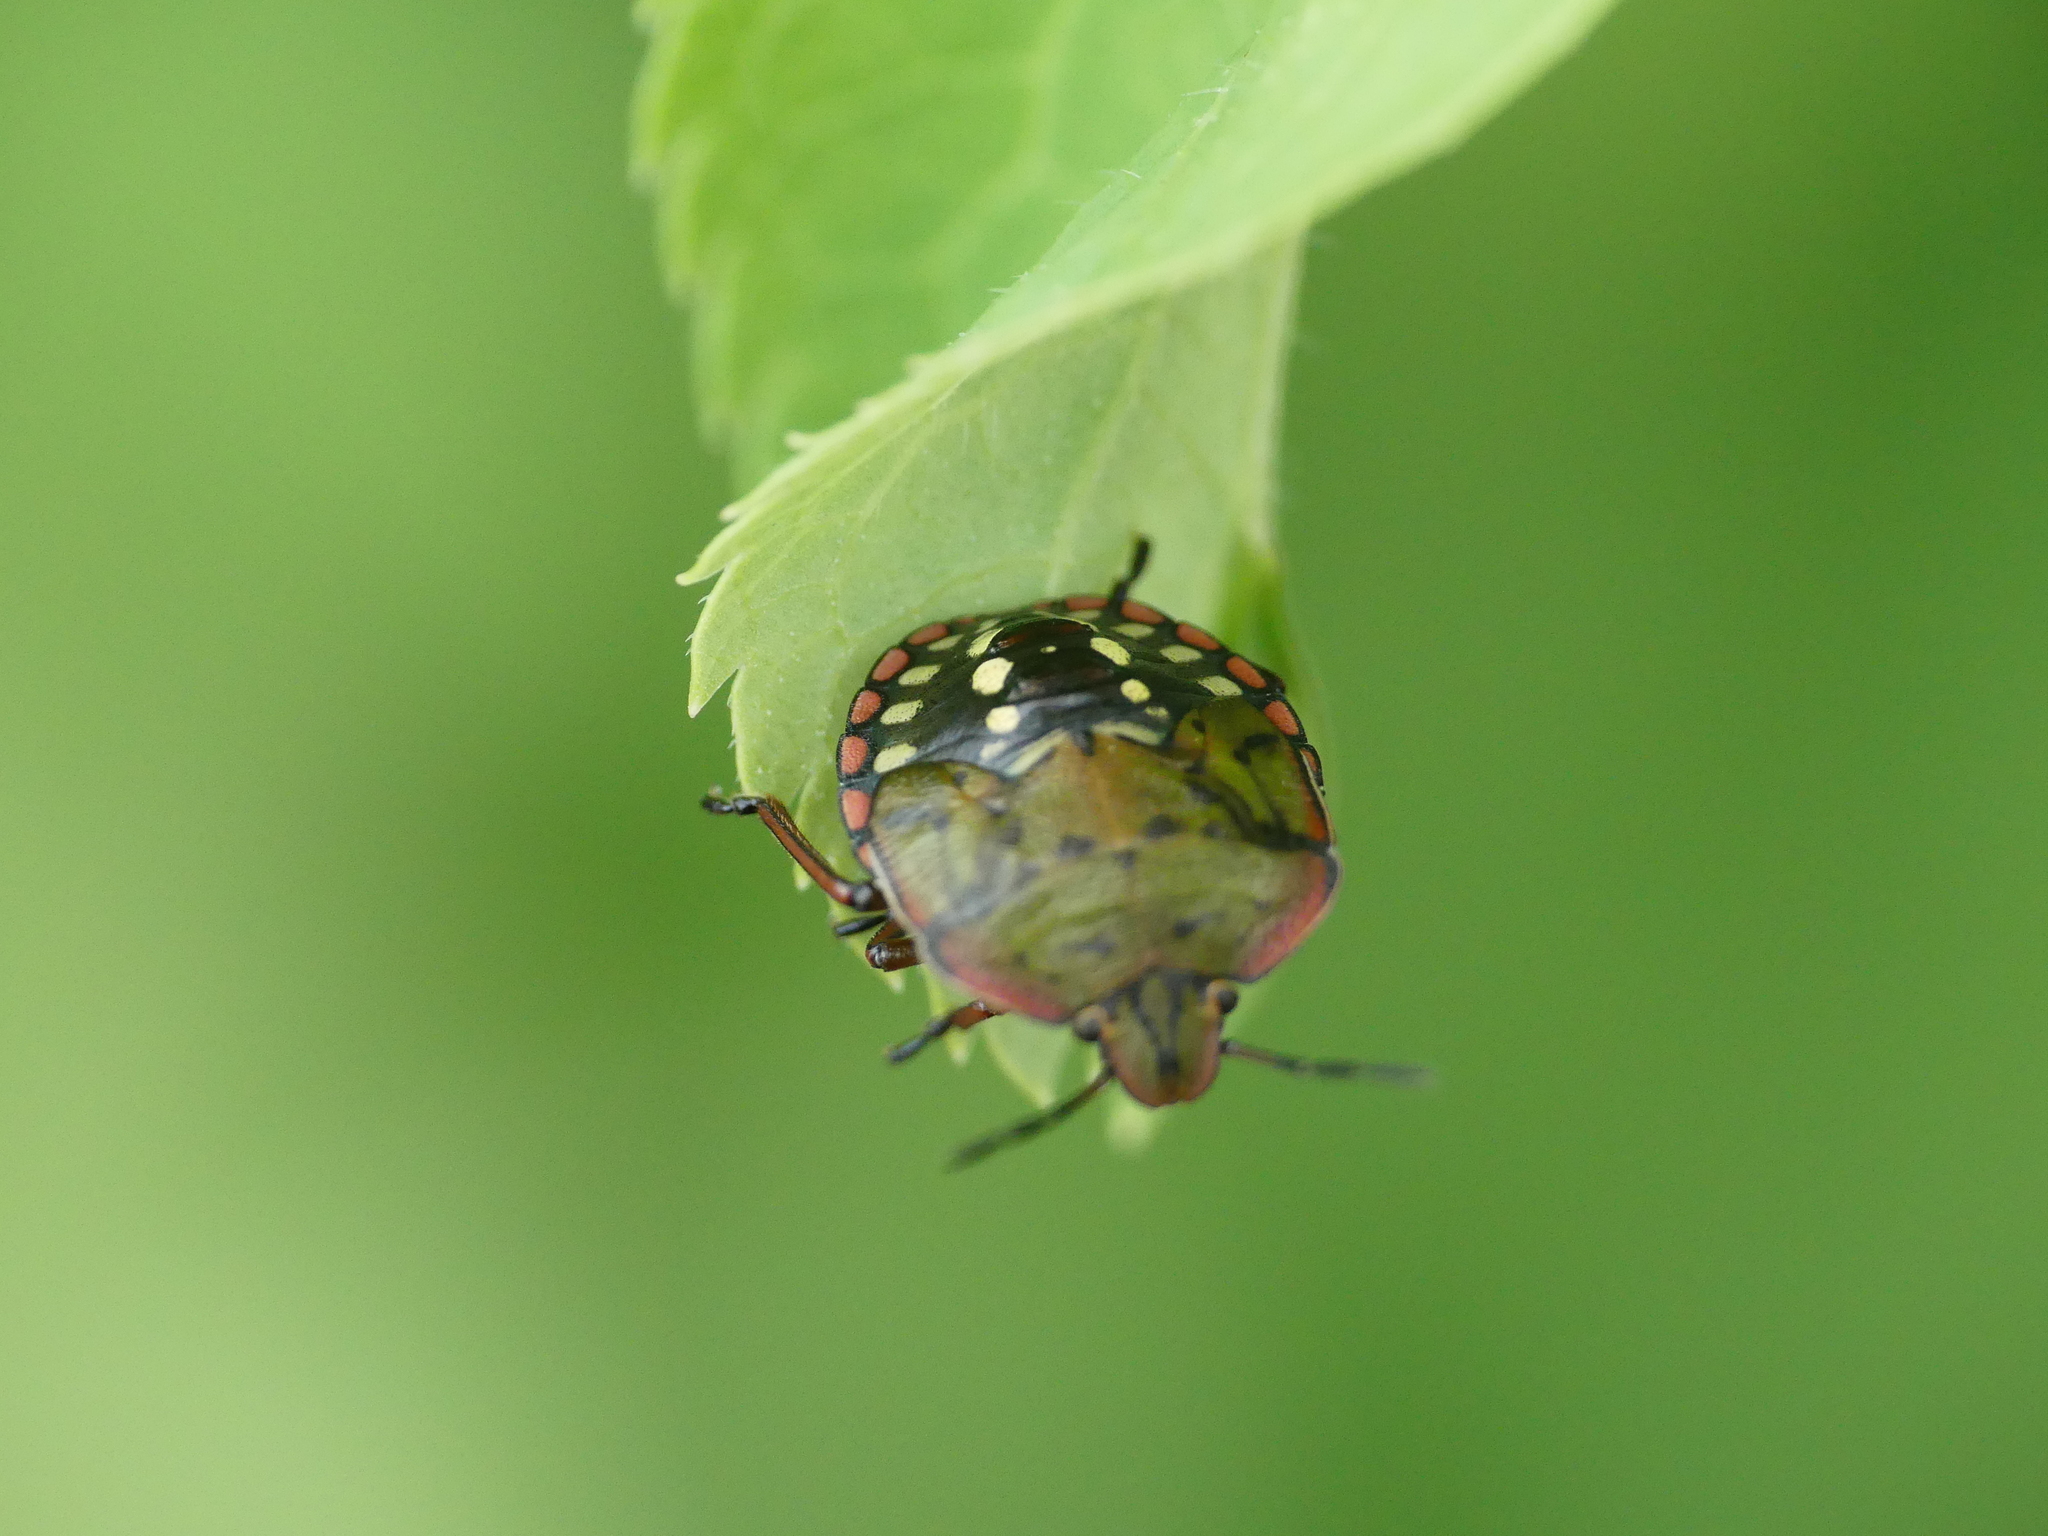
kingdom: Animalia
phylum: Arthropoda
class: Insecta
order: Hemiptera
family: Pentatomidae
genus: Nezara
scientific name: Nezara viridula
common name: Southern green stink bug
